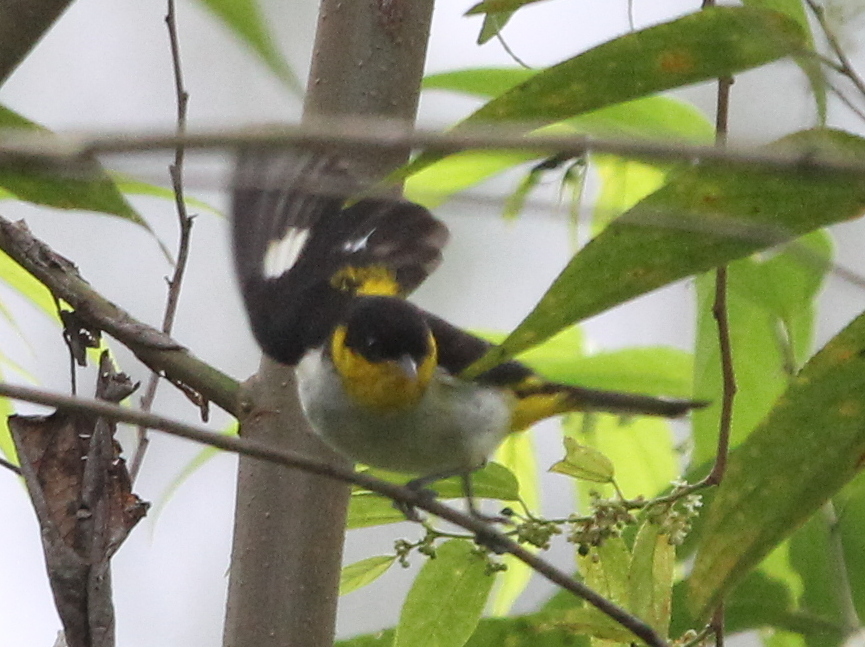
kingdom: Animalia
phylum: Chordata
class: Aves
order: Passeriformes
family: Thraupidae
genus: Hemithraupis
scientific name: Hemithraupis flavicollis
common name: Yellow-backed tanager
